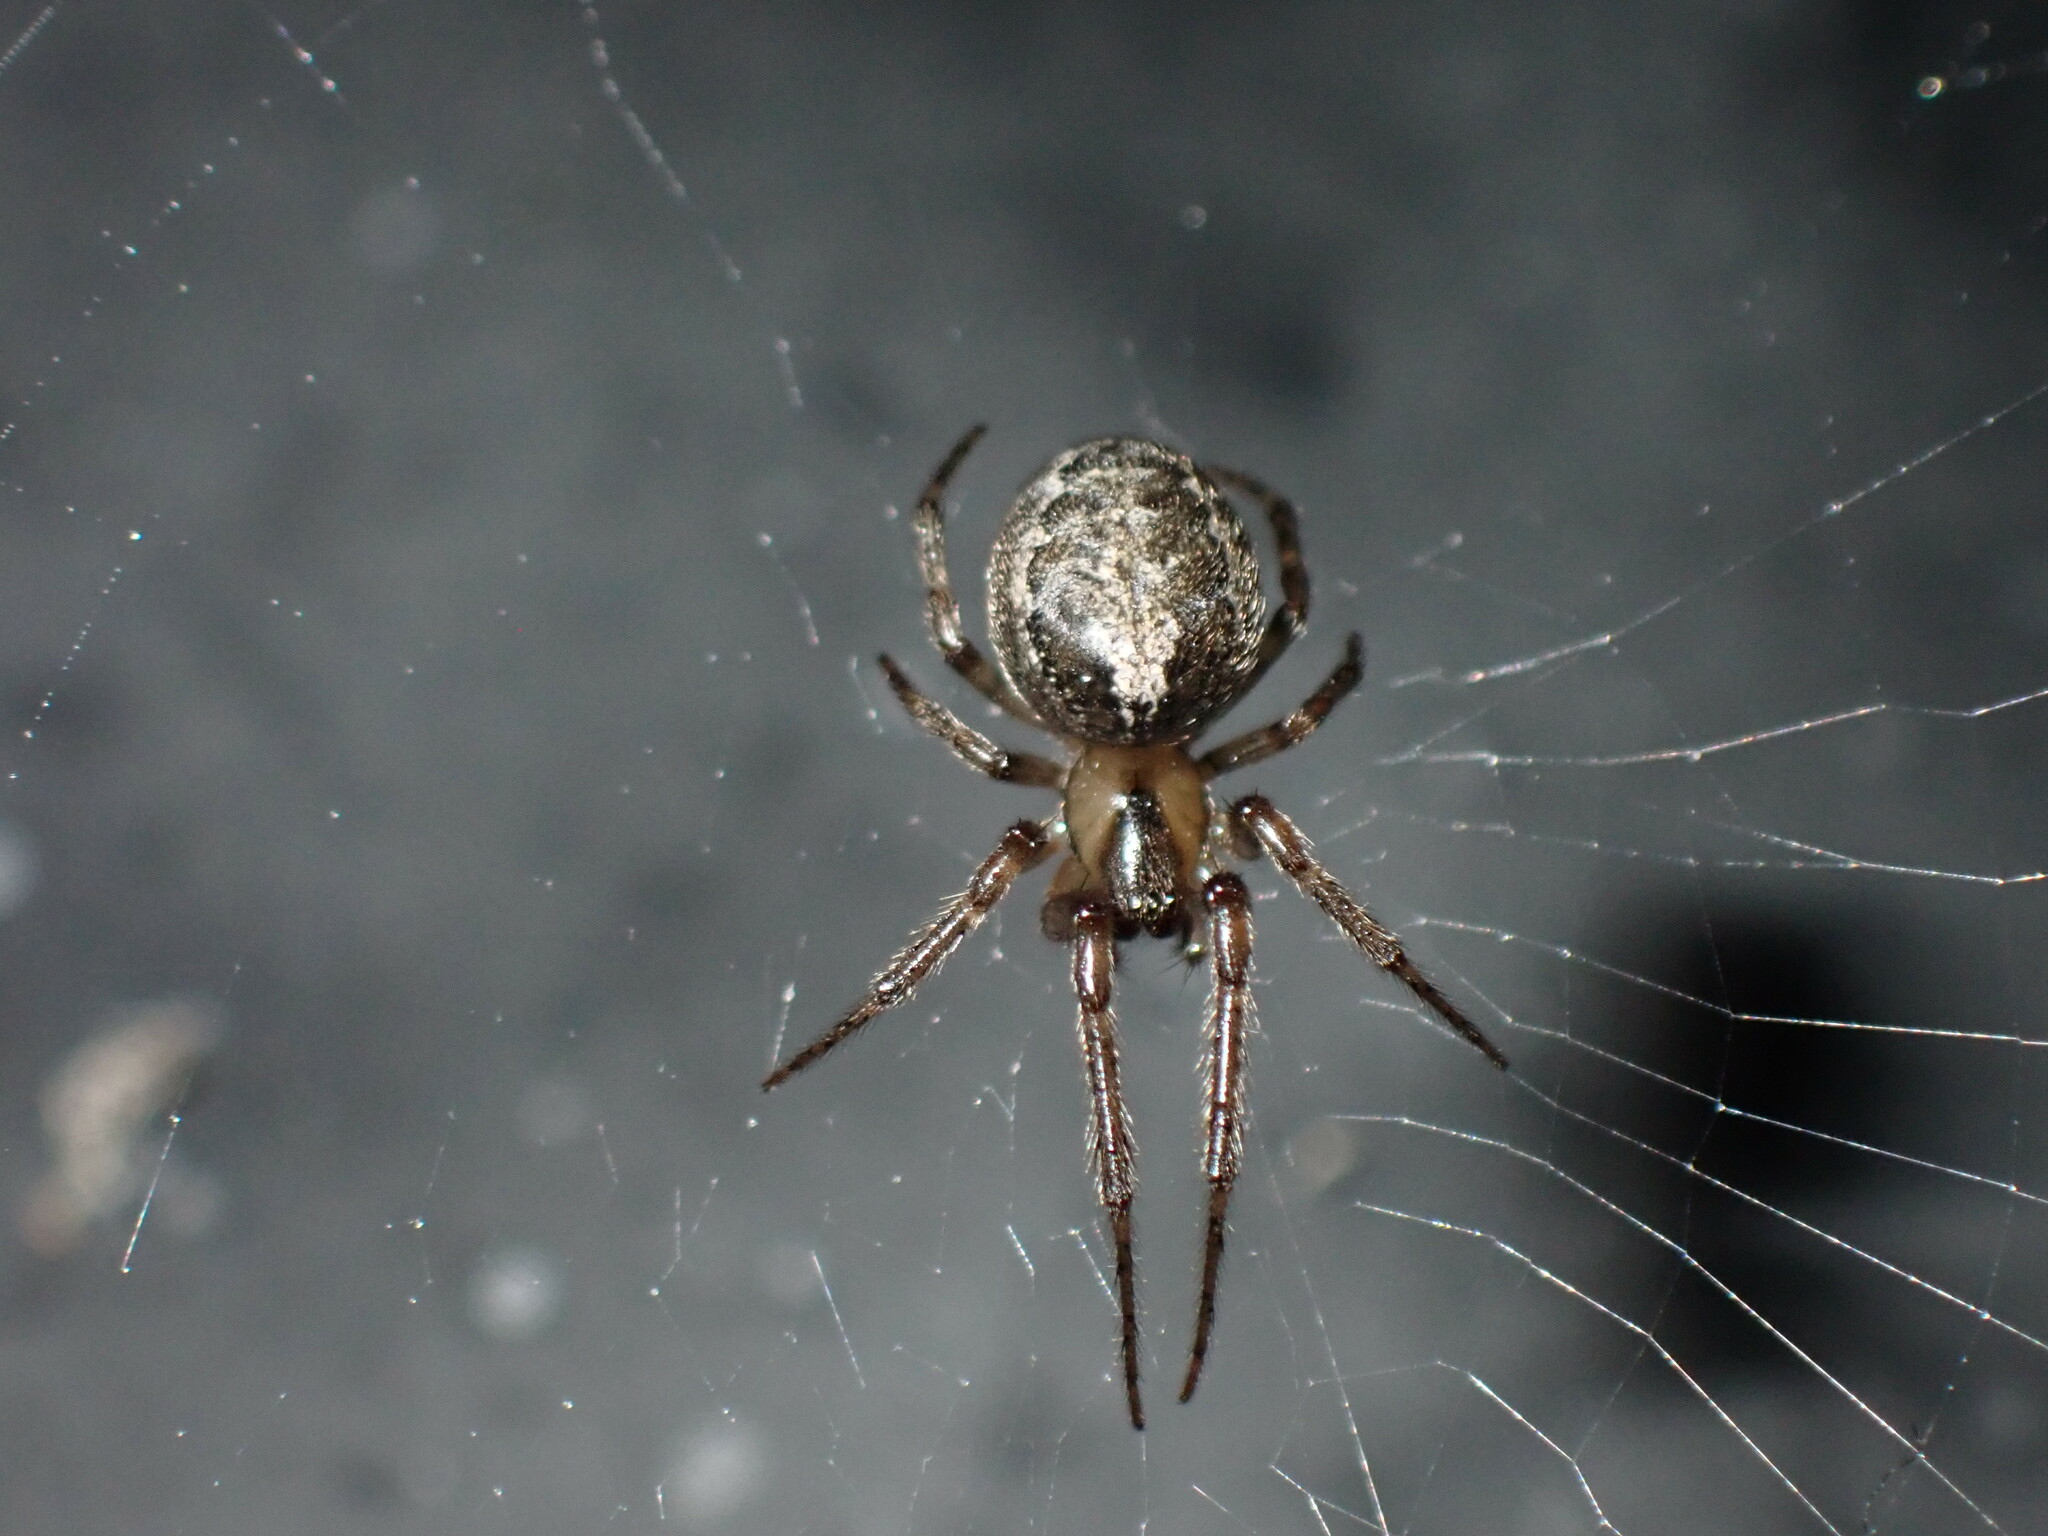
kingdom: Animalia
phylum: Arthropoda
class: Arachnida
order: Araneae
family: Araneidae
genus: Zygiella
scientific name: Zygiella x-notata
